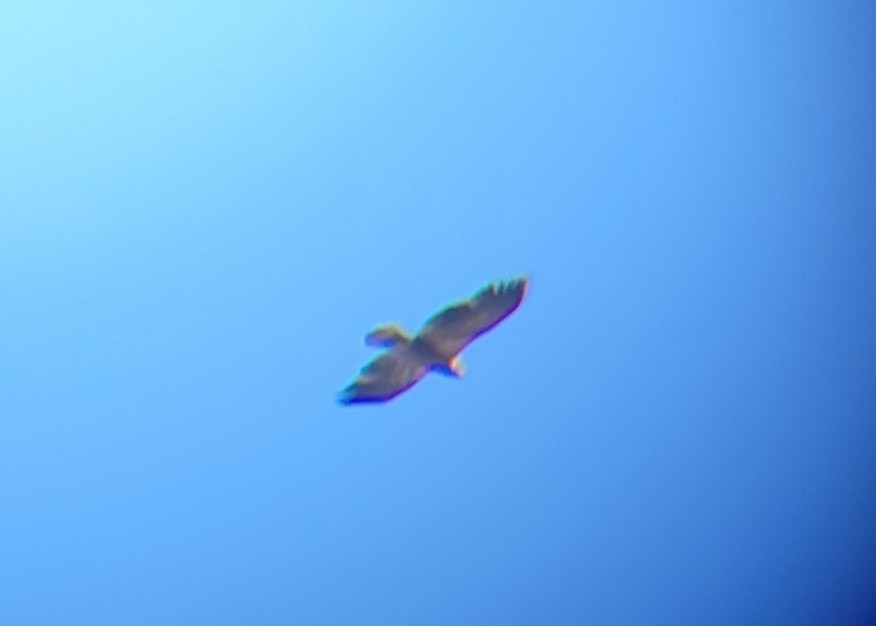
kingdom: Animalia
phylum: Chordata
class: Aves
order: Accipitriformes
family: Accipitridae
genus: Haliaeetus
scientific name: Haliaeetus leucocephalus
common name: Bald eagle
